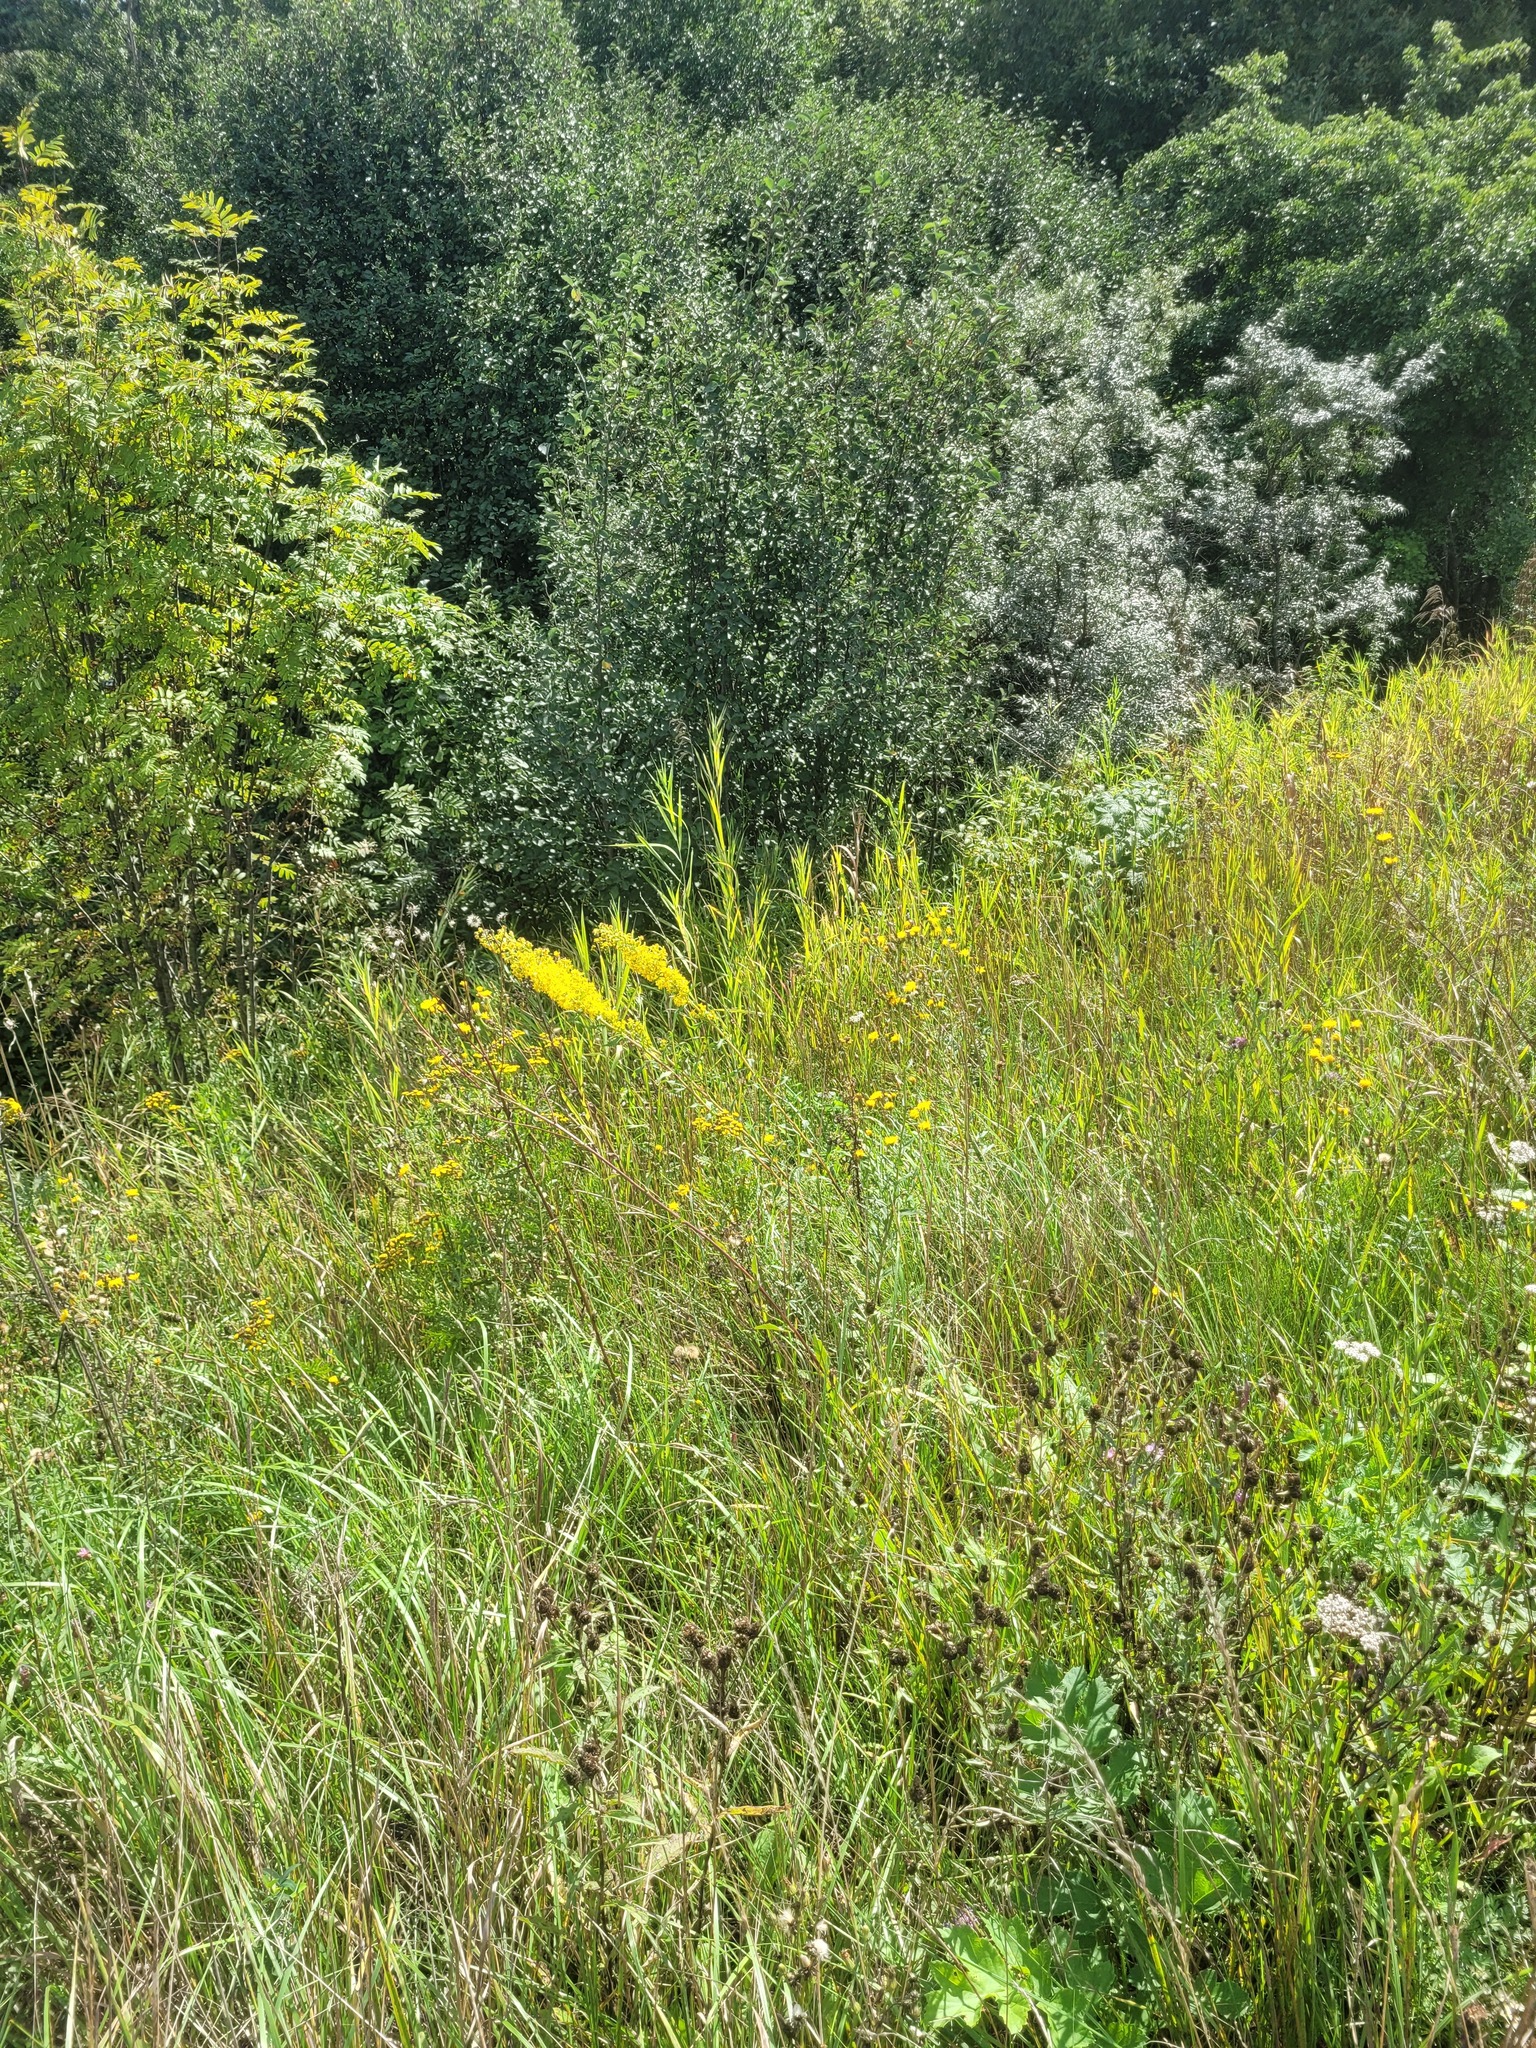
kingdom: Plantae
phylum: Tracheophyta
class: Magnoliopsida
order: Asterales
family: Asteraceae
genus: Solidago
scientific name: Solidago virgaurea
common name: Goldenrod
